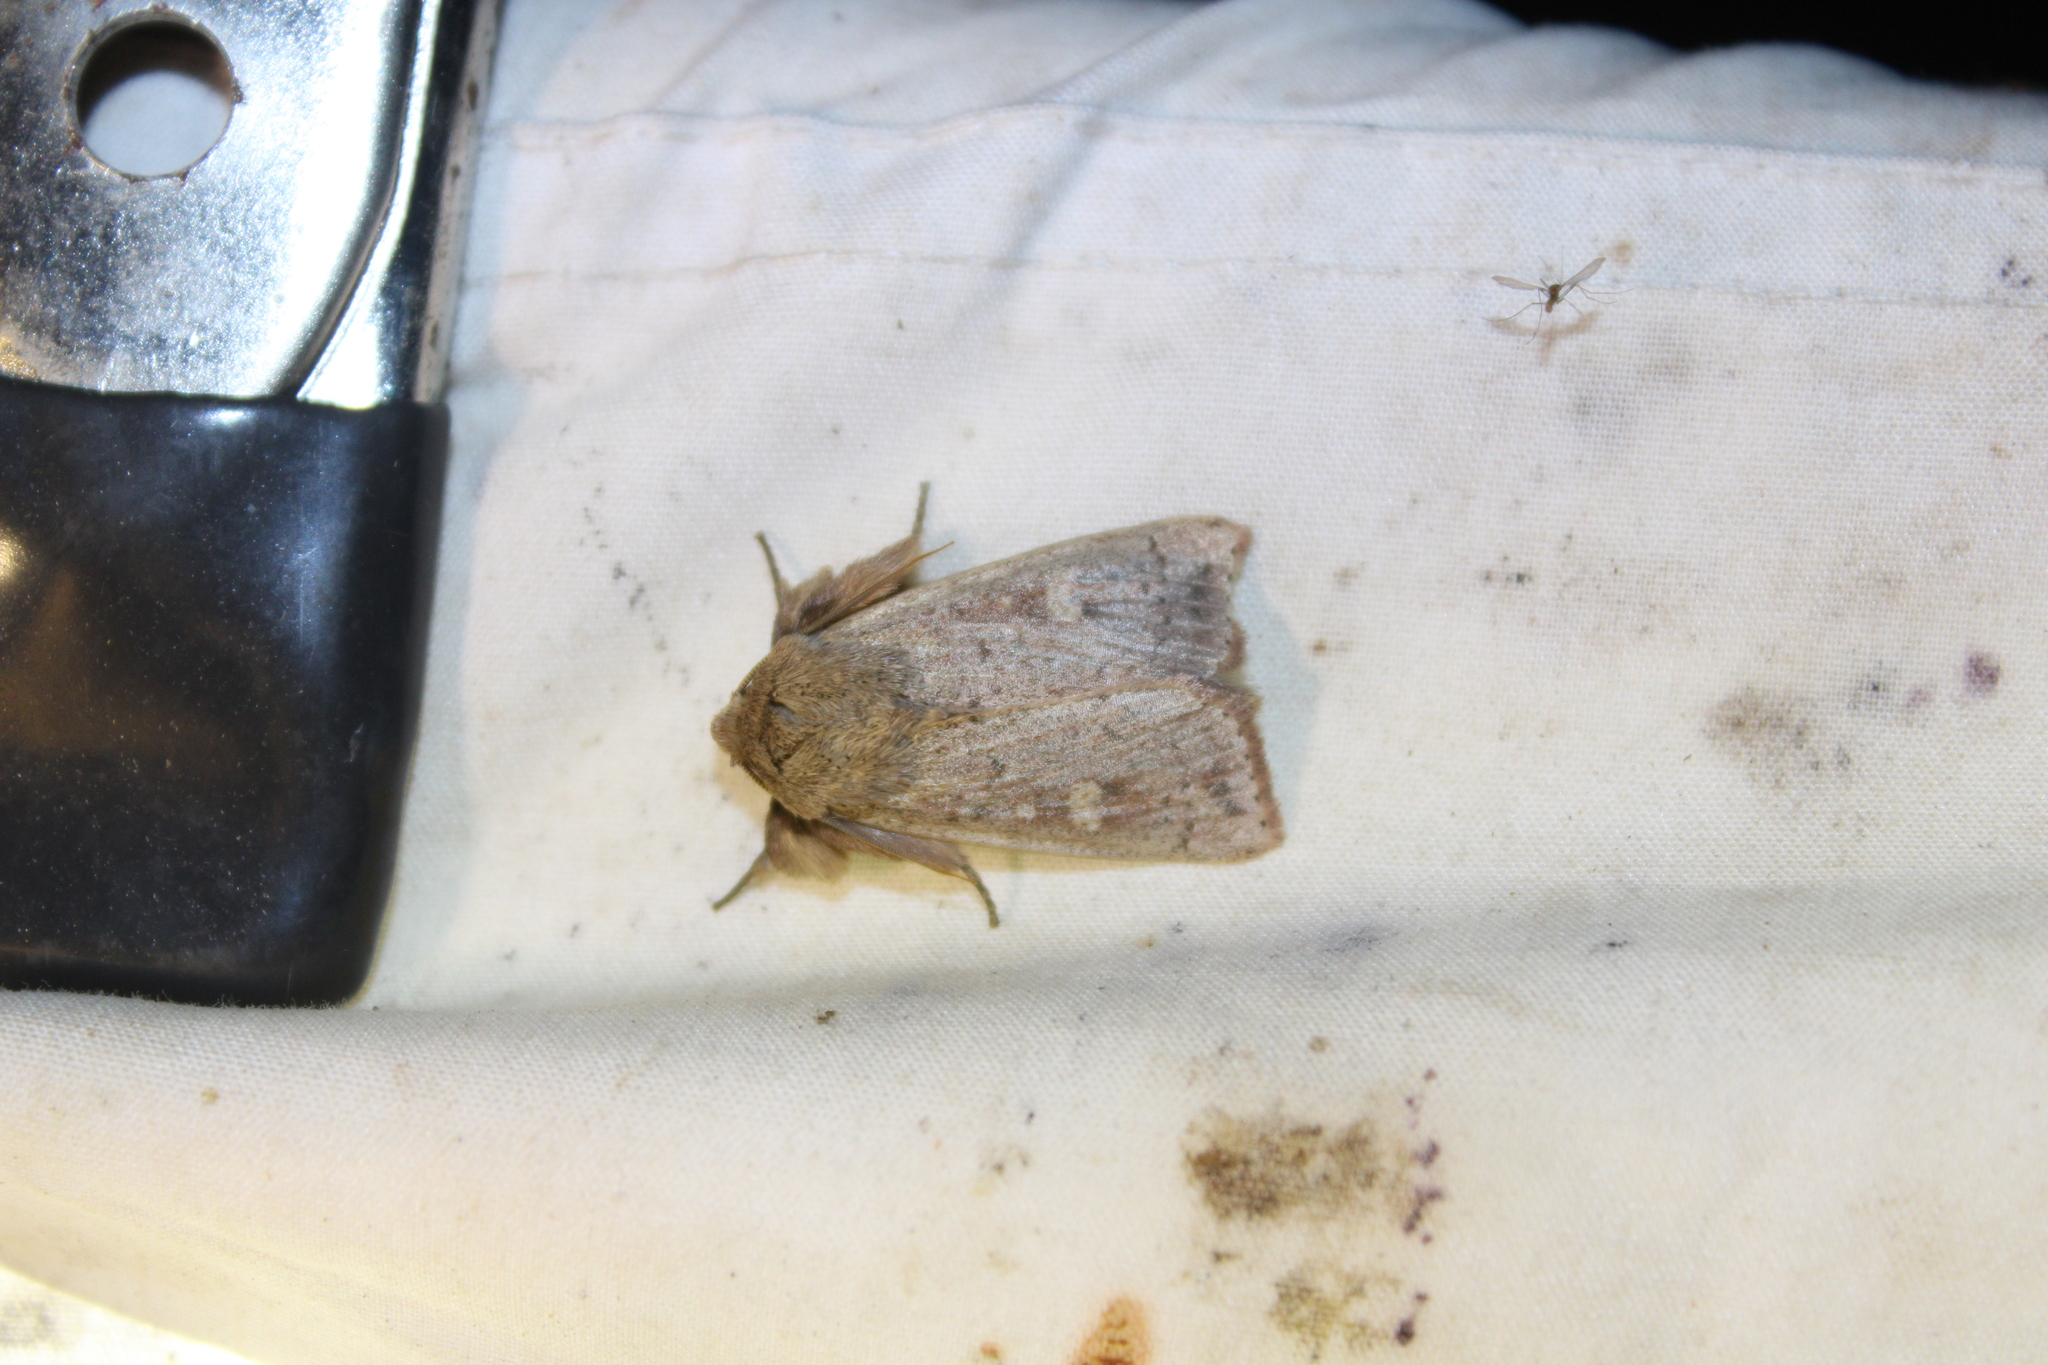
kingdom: Animalia
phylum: Arthropoda
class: Insecta
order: Lepidoptera
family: Noctuidae
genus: Leucania
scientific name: Leucania pseudargyria
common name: False wainscot
